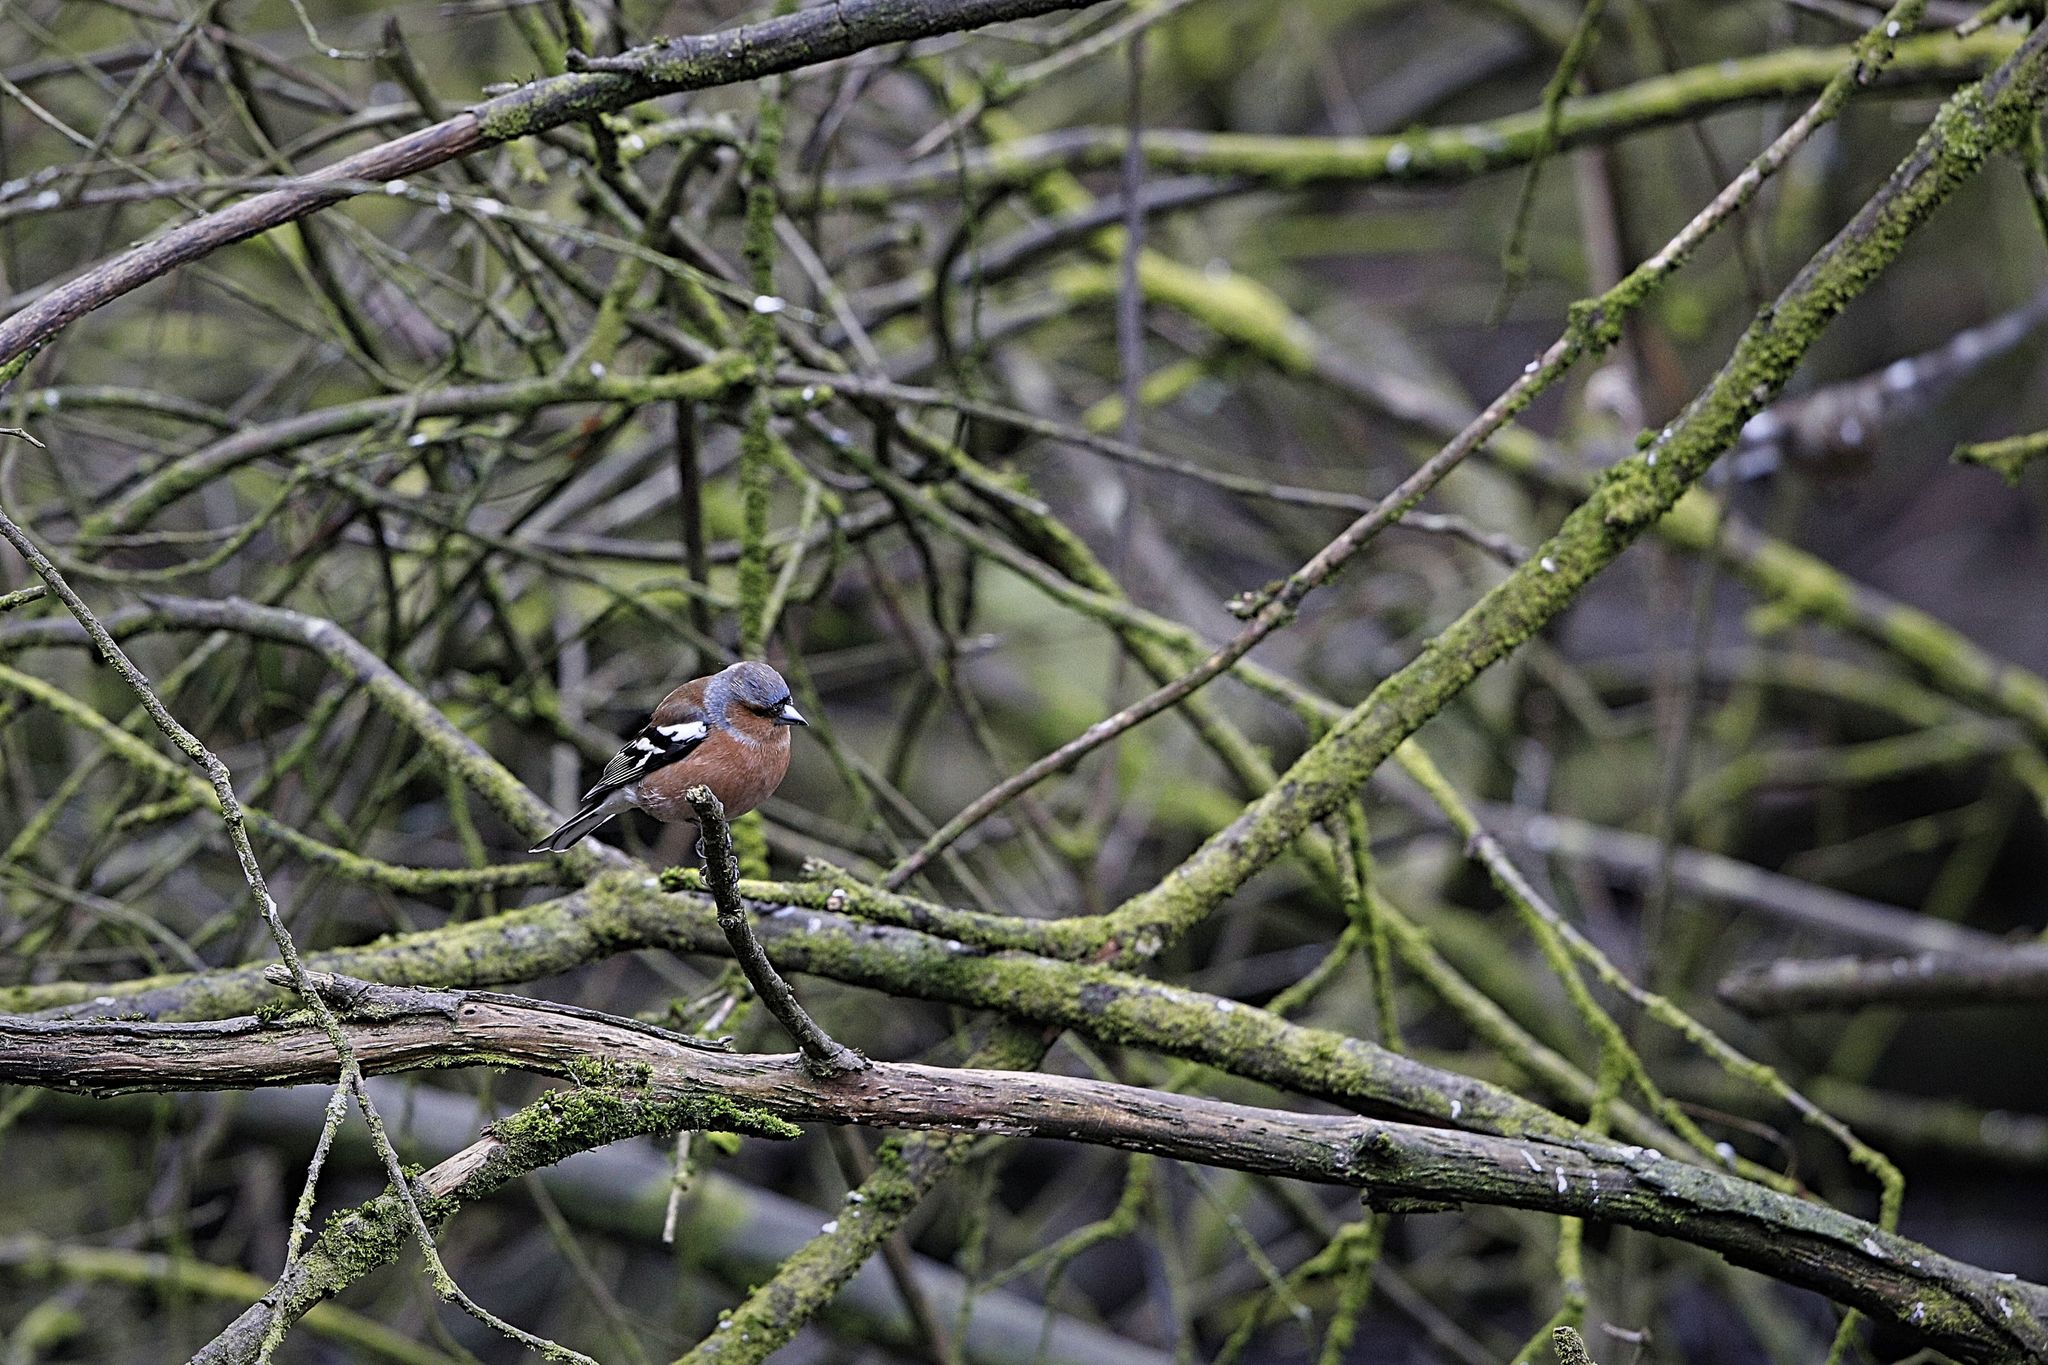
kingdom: Animalia
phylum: Chordata
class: Aves
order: Passeriformes
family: Fringillidae
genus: Fringilla
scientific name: Fringilla coelebs
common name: Common chaffinch
